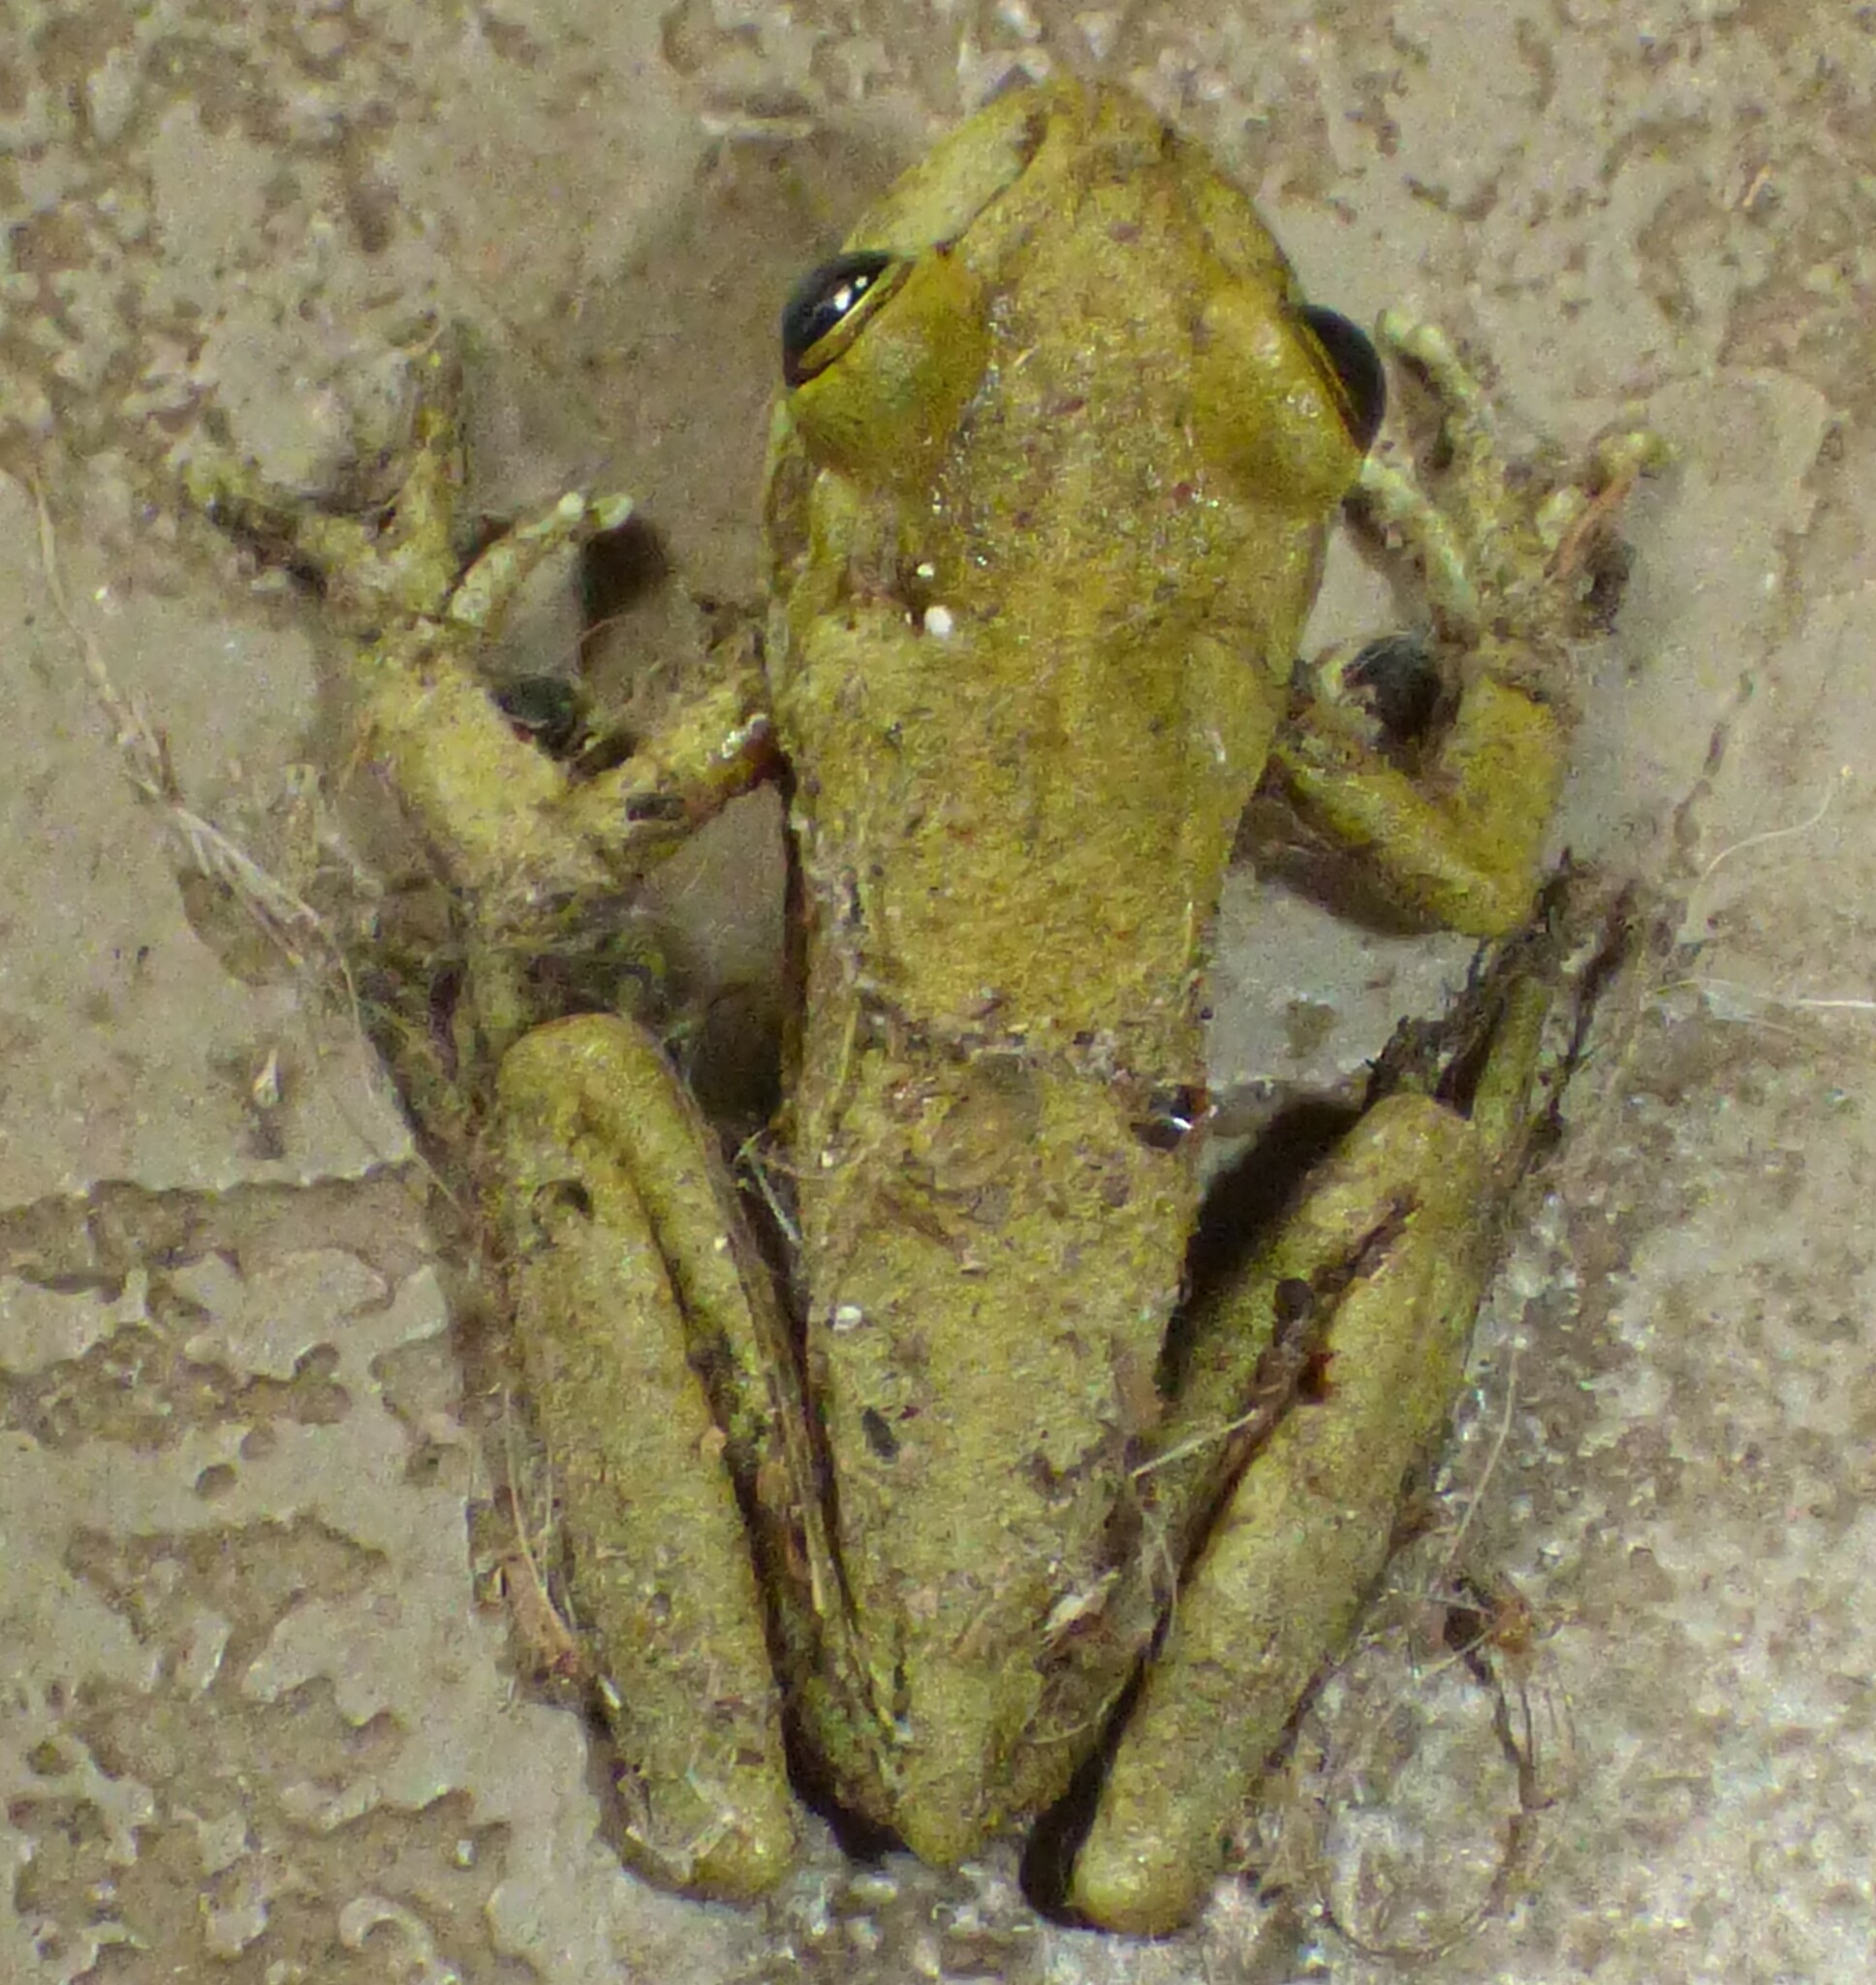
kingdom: Animalia
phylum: Chordata
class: Amphibia
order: Anura
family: Hylidae
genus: Osteopilus
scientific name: Osteopilus septentrionalis
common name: Cuban treefrog
